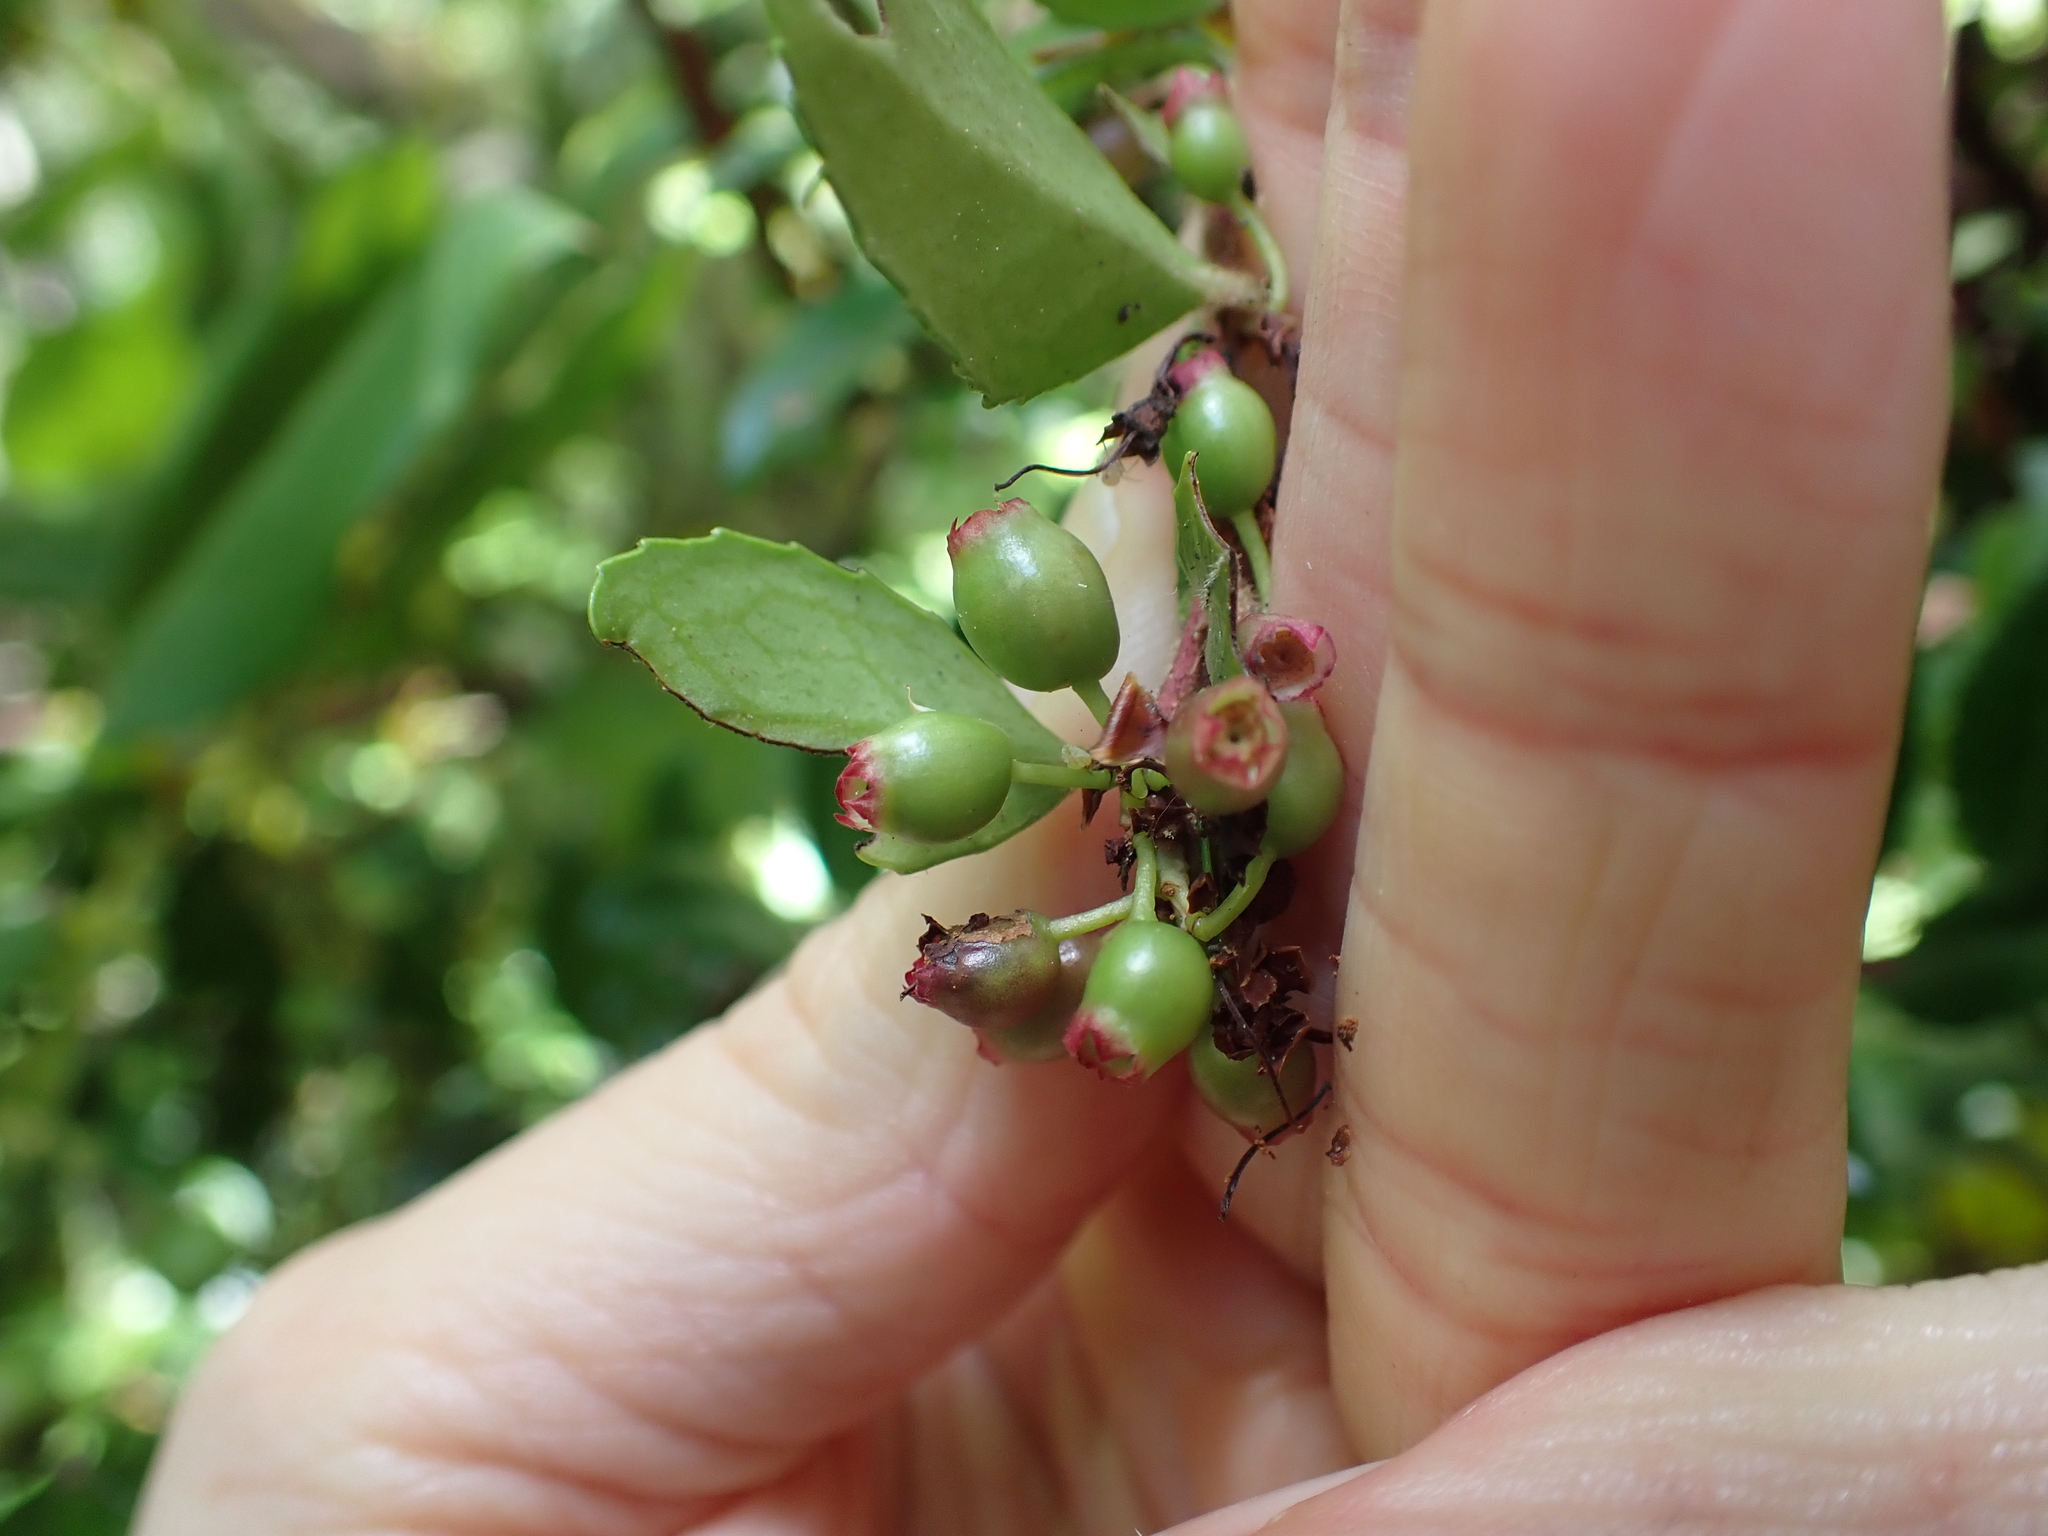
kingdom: Plantae
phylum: Tracheophyta
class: Magnoliopsida
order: Ericales
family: Ericaceae
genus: Vaccinium
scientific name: Vaccinium ovatum
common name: California-huckleberry
